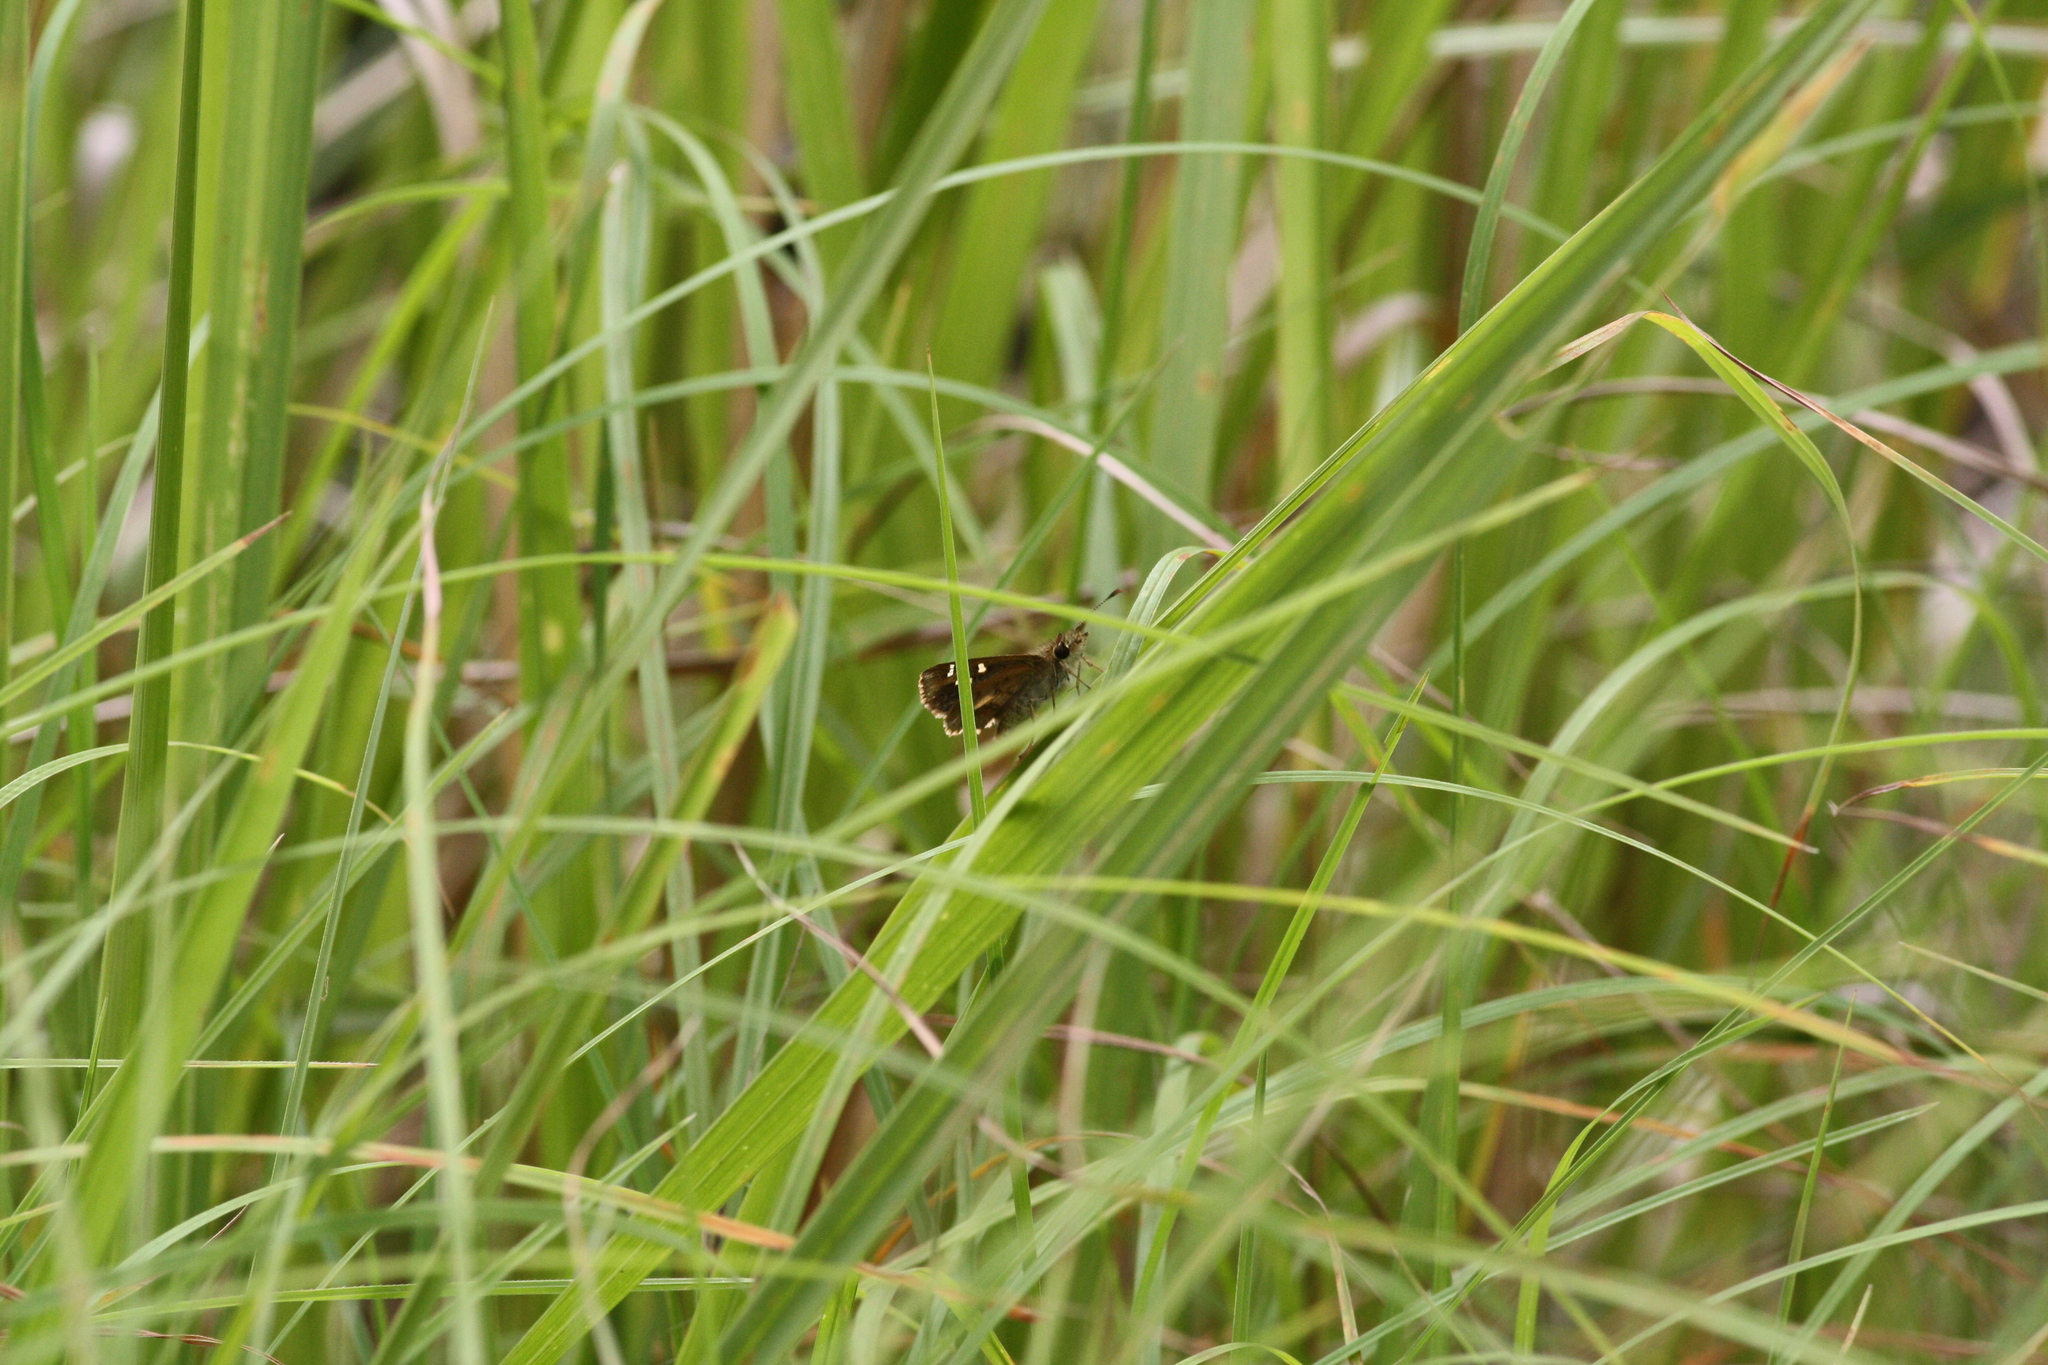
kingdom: Animalia
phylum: Arthropoda
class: Insecta
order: Lepidoptera
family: Hesperiidae
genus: Dispar
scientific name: Dispar compacta
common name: Barred skipper
